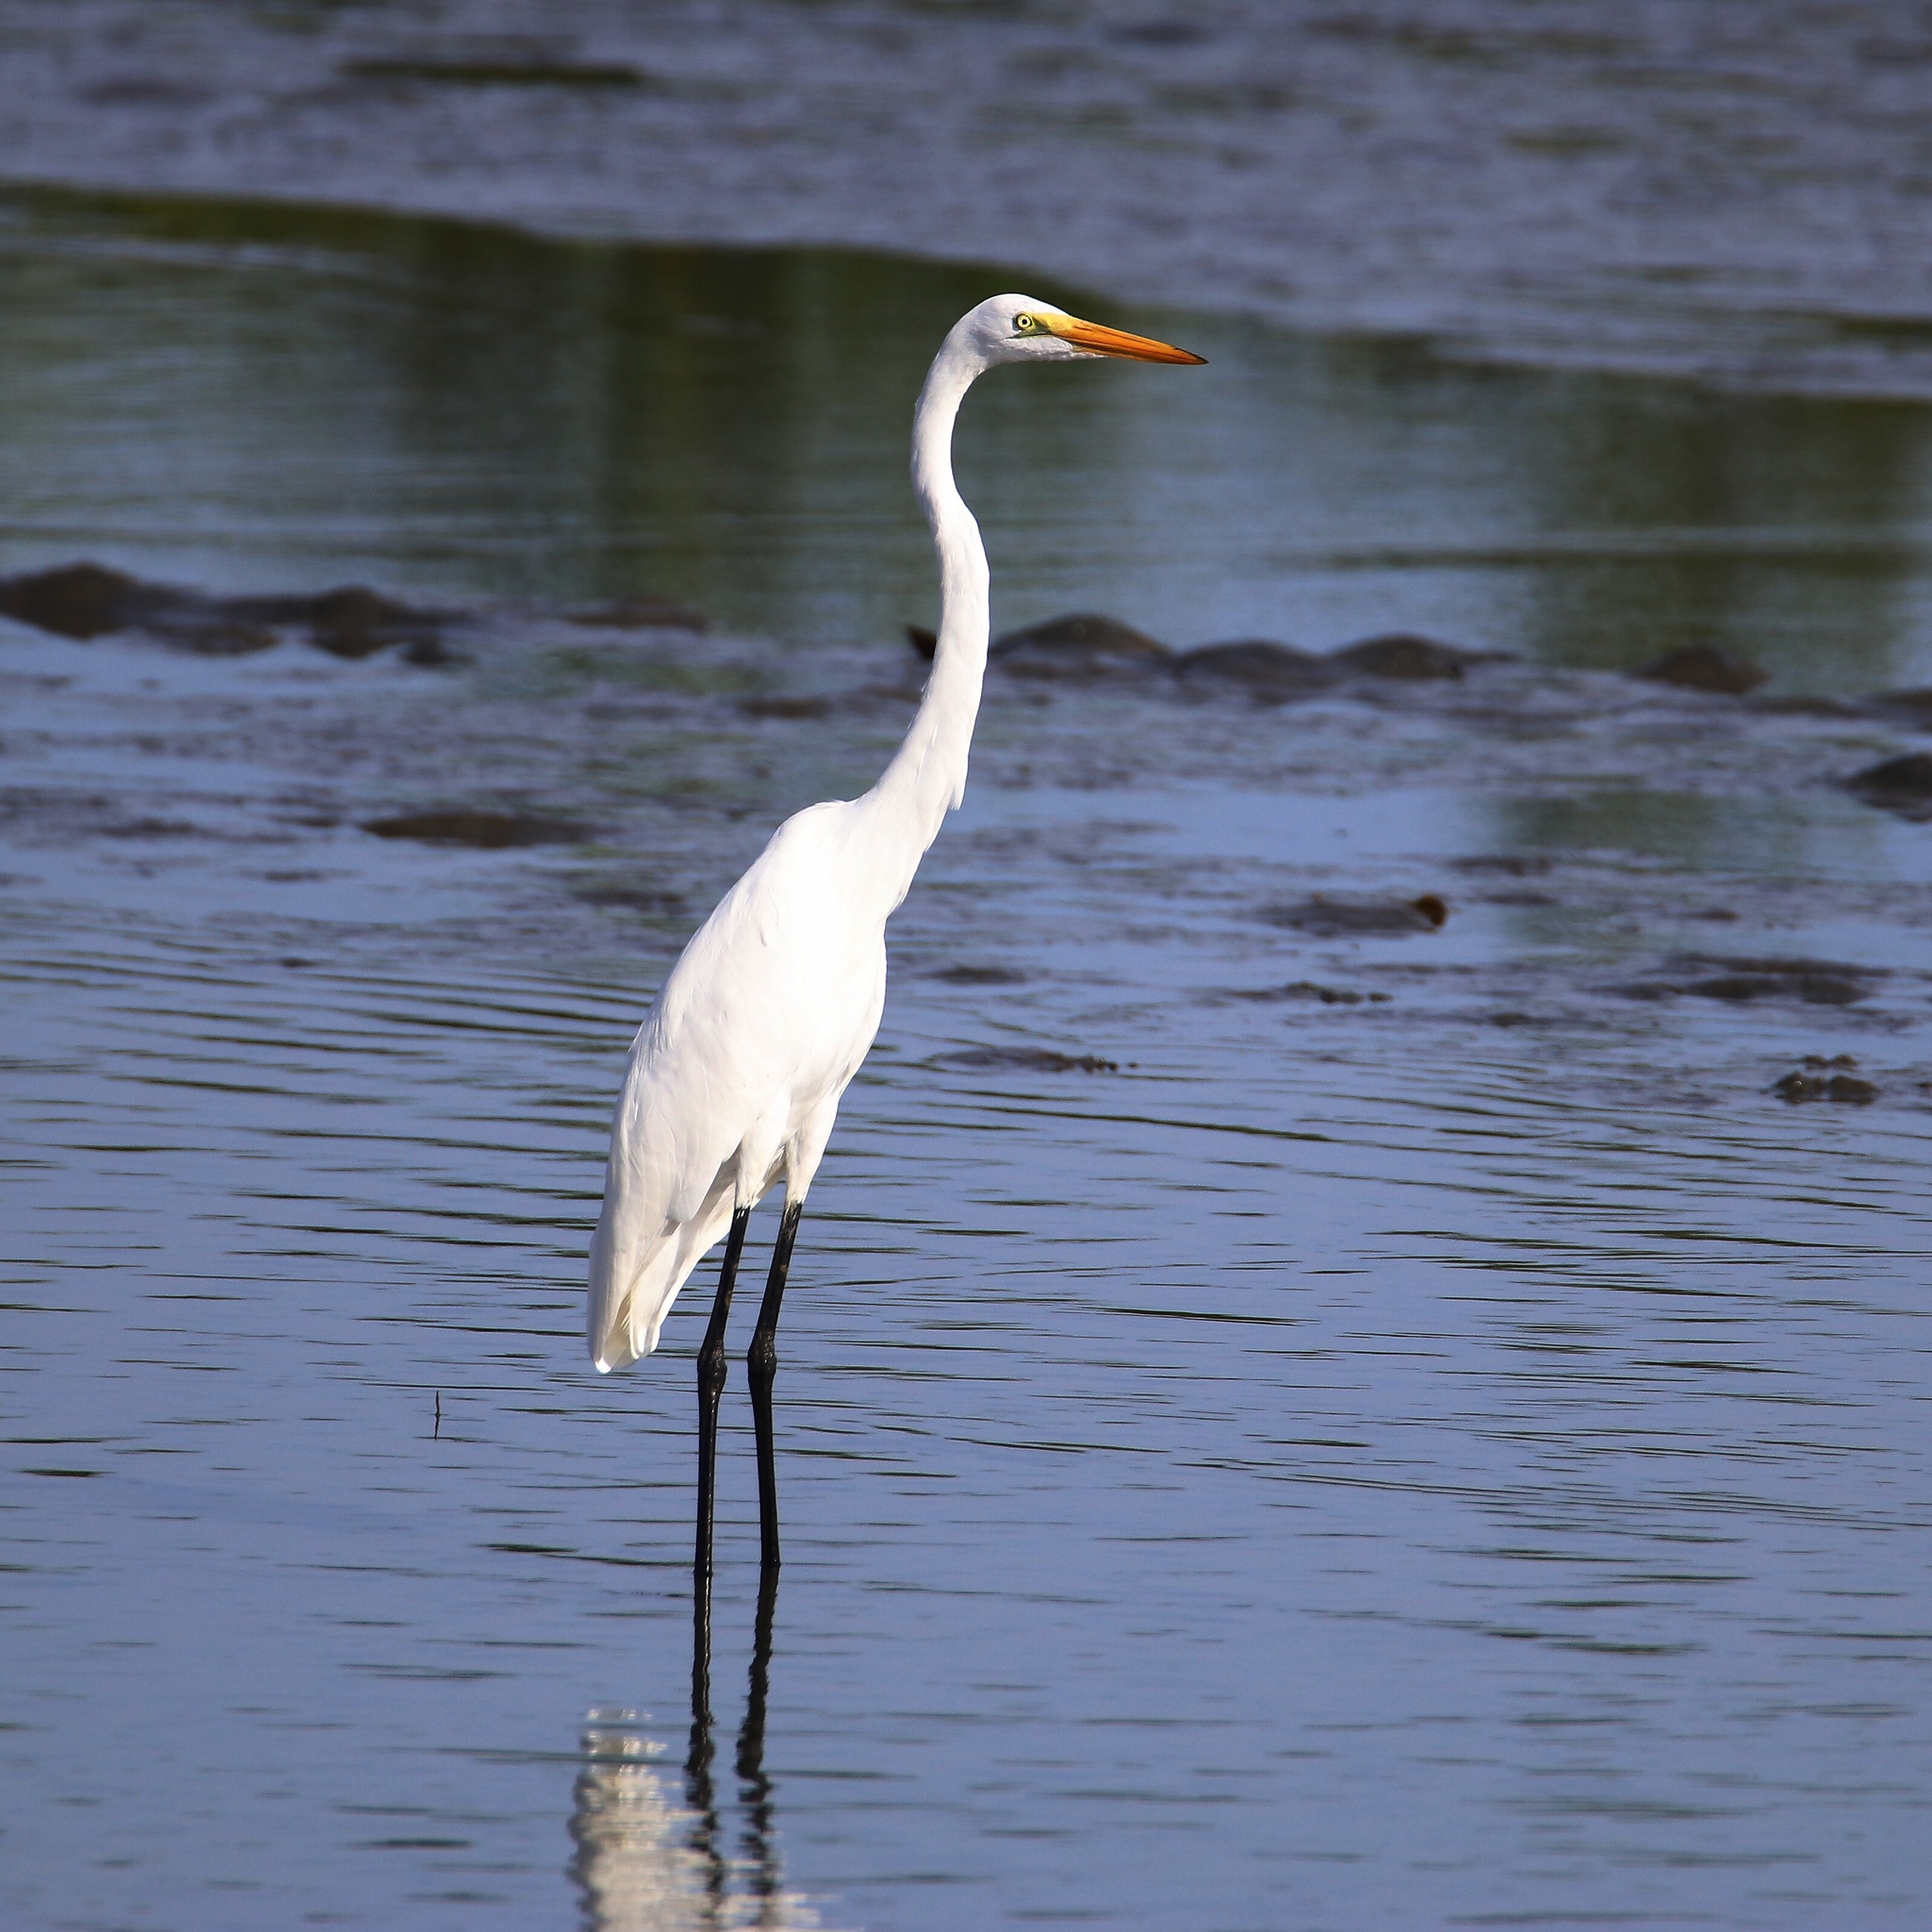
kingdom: Animalia
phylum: Chordata
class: Aves
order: Pelecaniformes
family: Ardeidae
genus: Ardea
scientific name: Ardea alba
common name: Great egret
